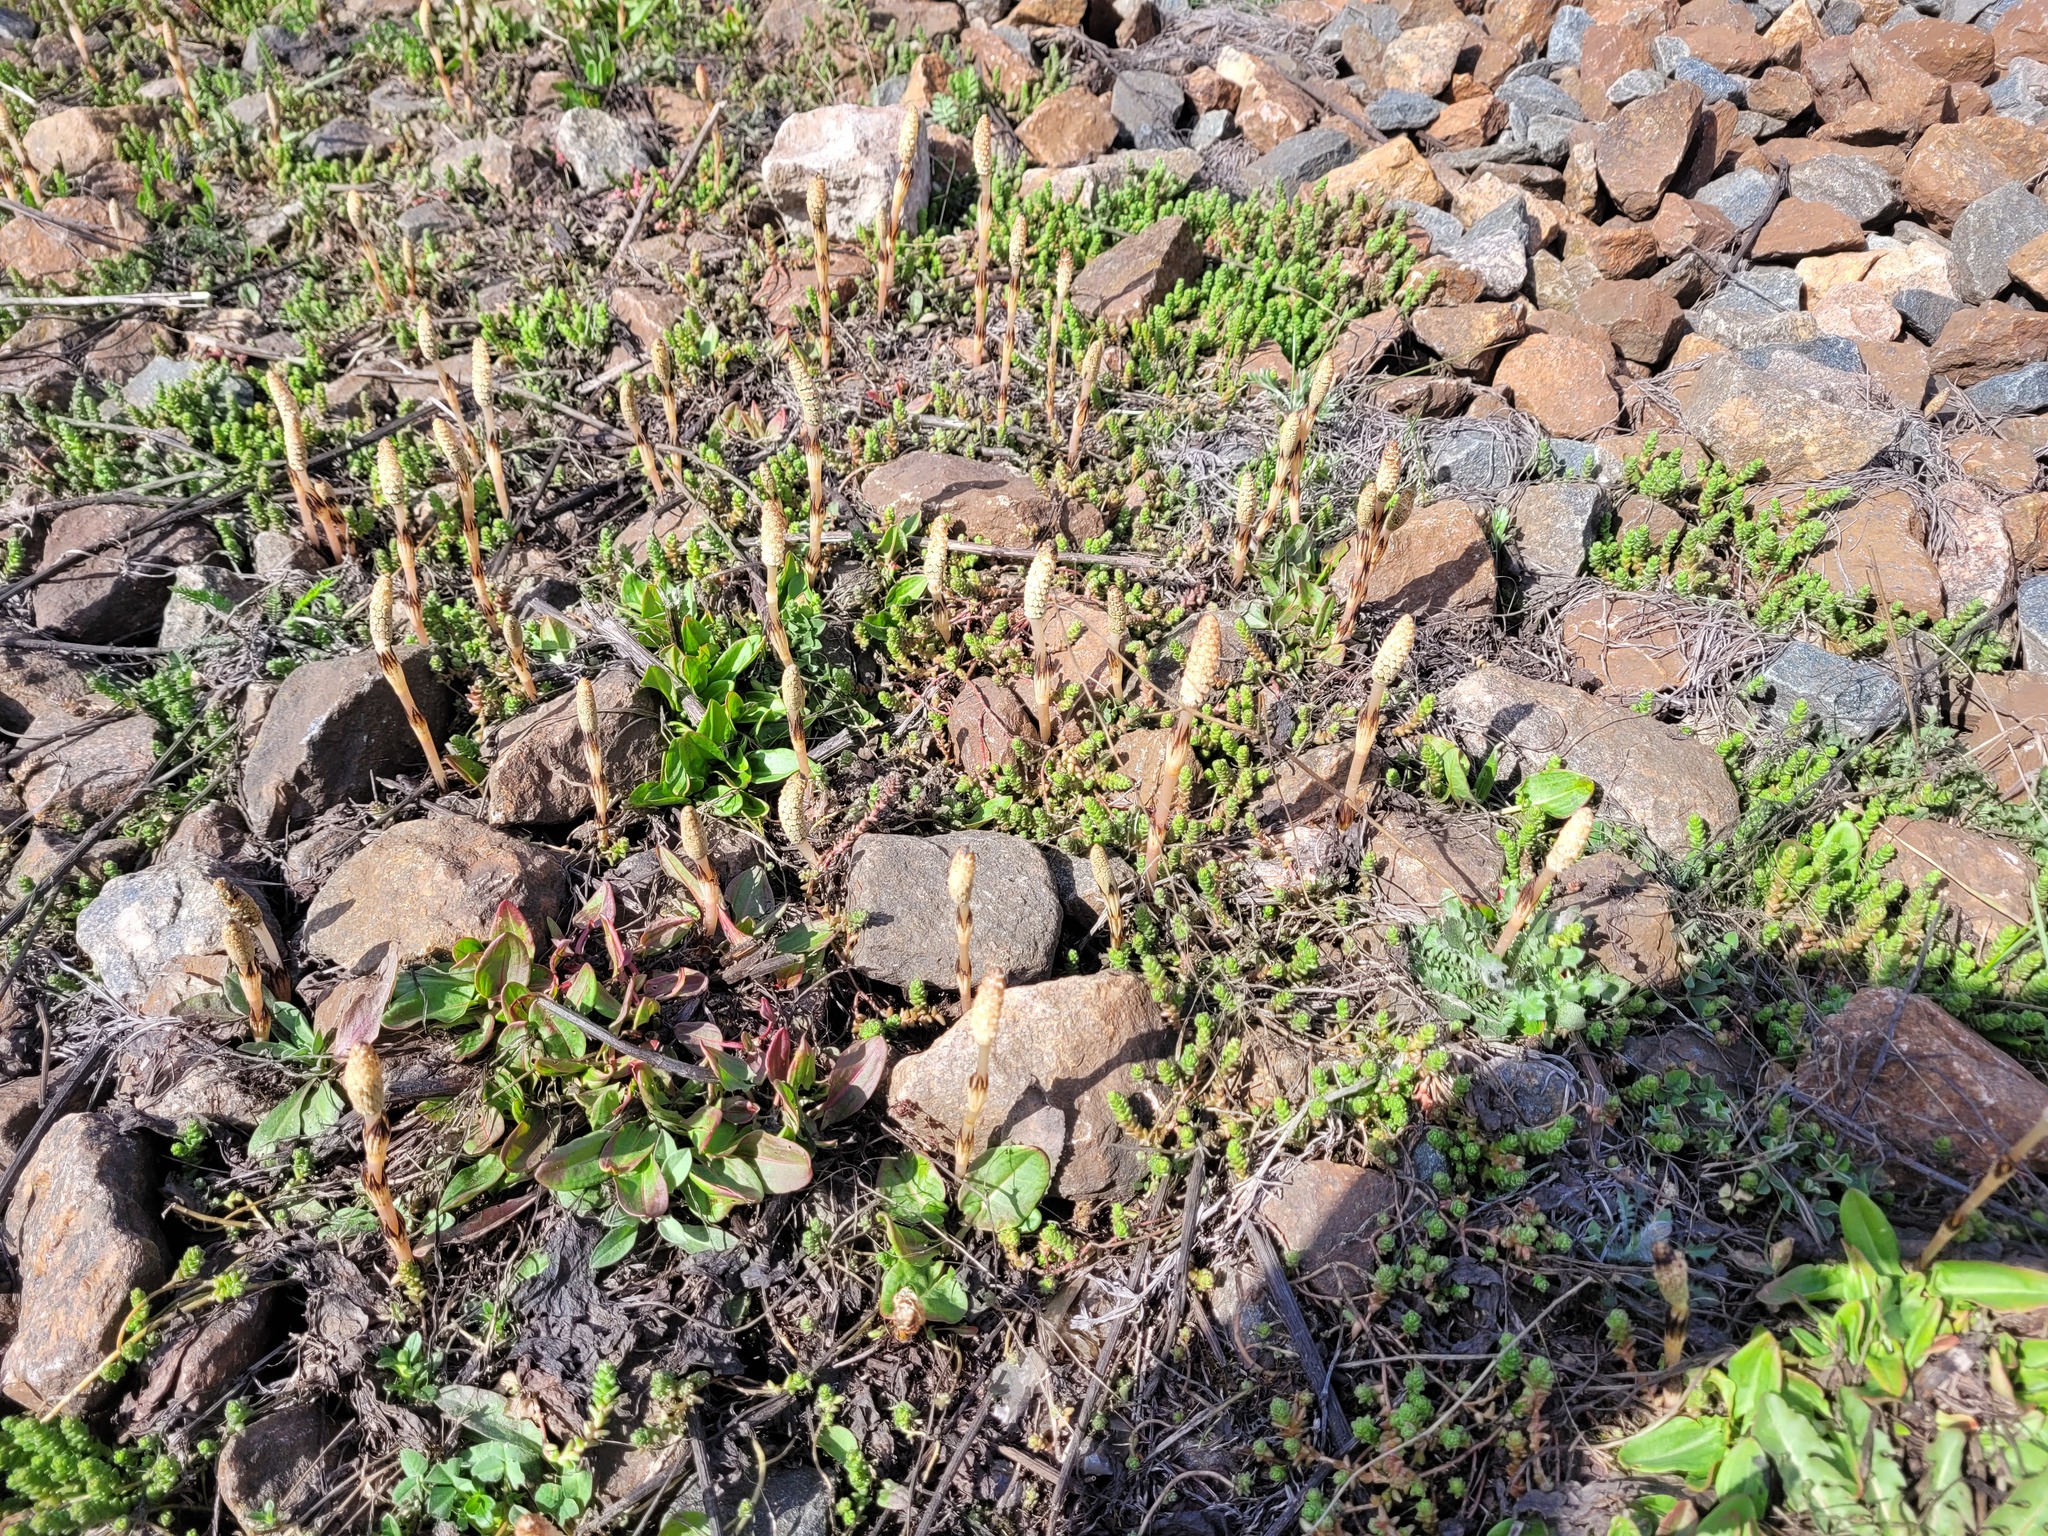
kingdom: Plantae
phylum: Tracheophyta
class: Polypodiopsida
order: Equisetales
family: Equisetaceae
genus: Equisetum
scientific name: Equisetum arvense
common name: Field horsetail
